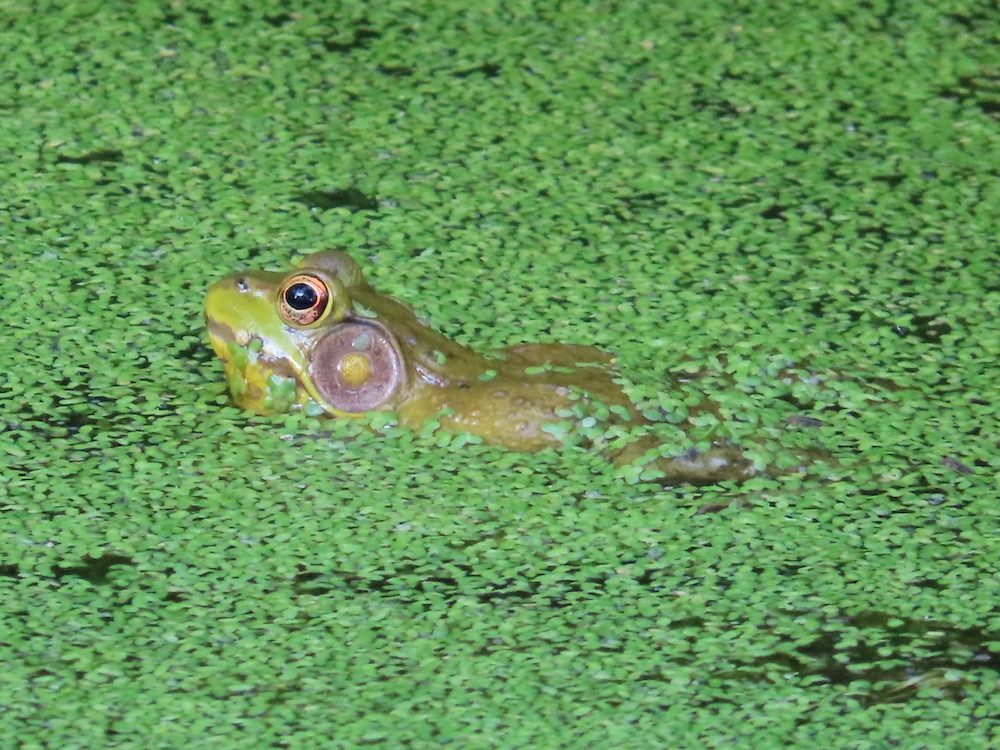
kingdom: Animalia
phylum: Chordata
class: Amphibia
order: Anura
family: Ranidae
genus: Lithobates
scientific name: Lithobates clamitans
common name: Green frog
